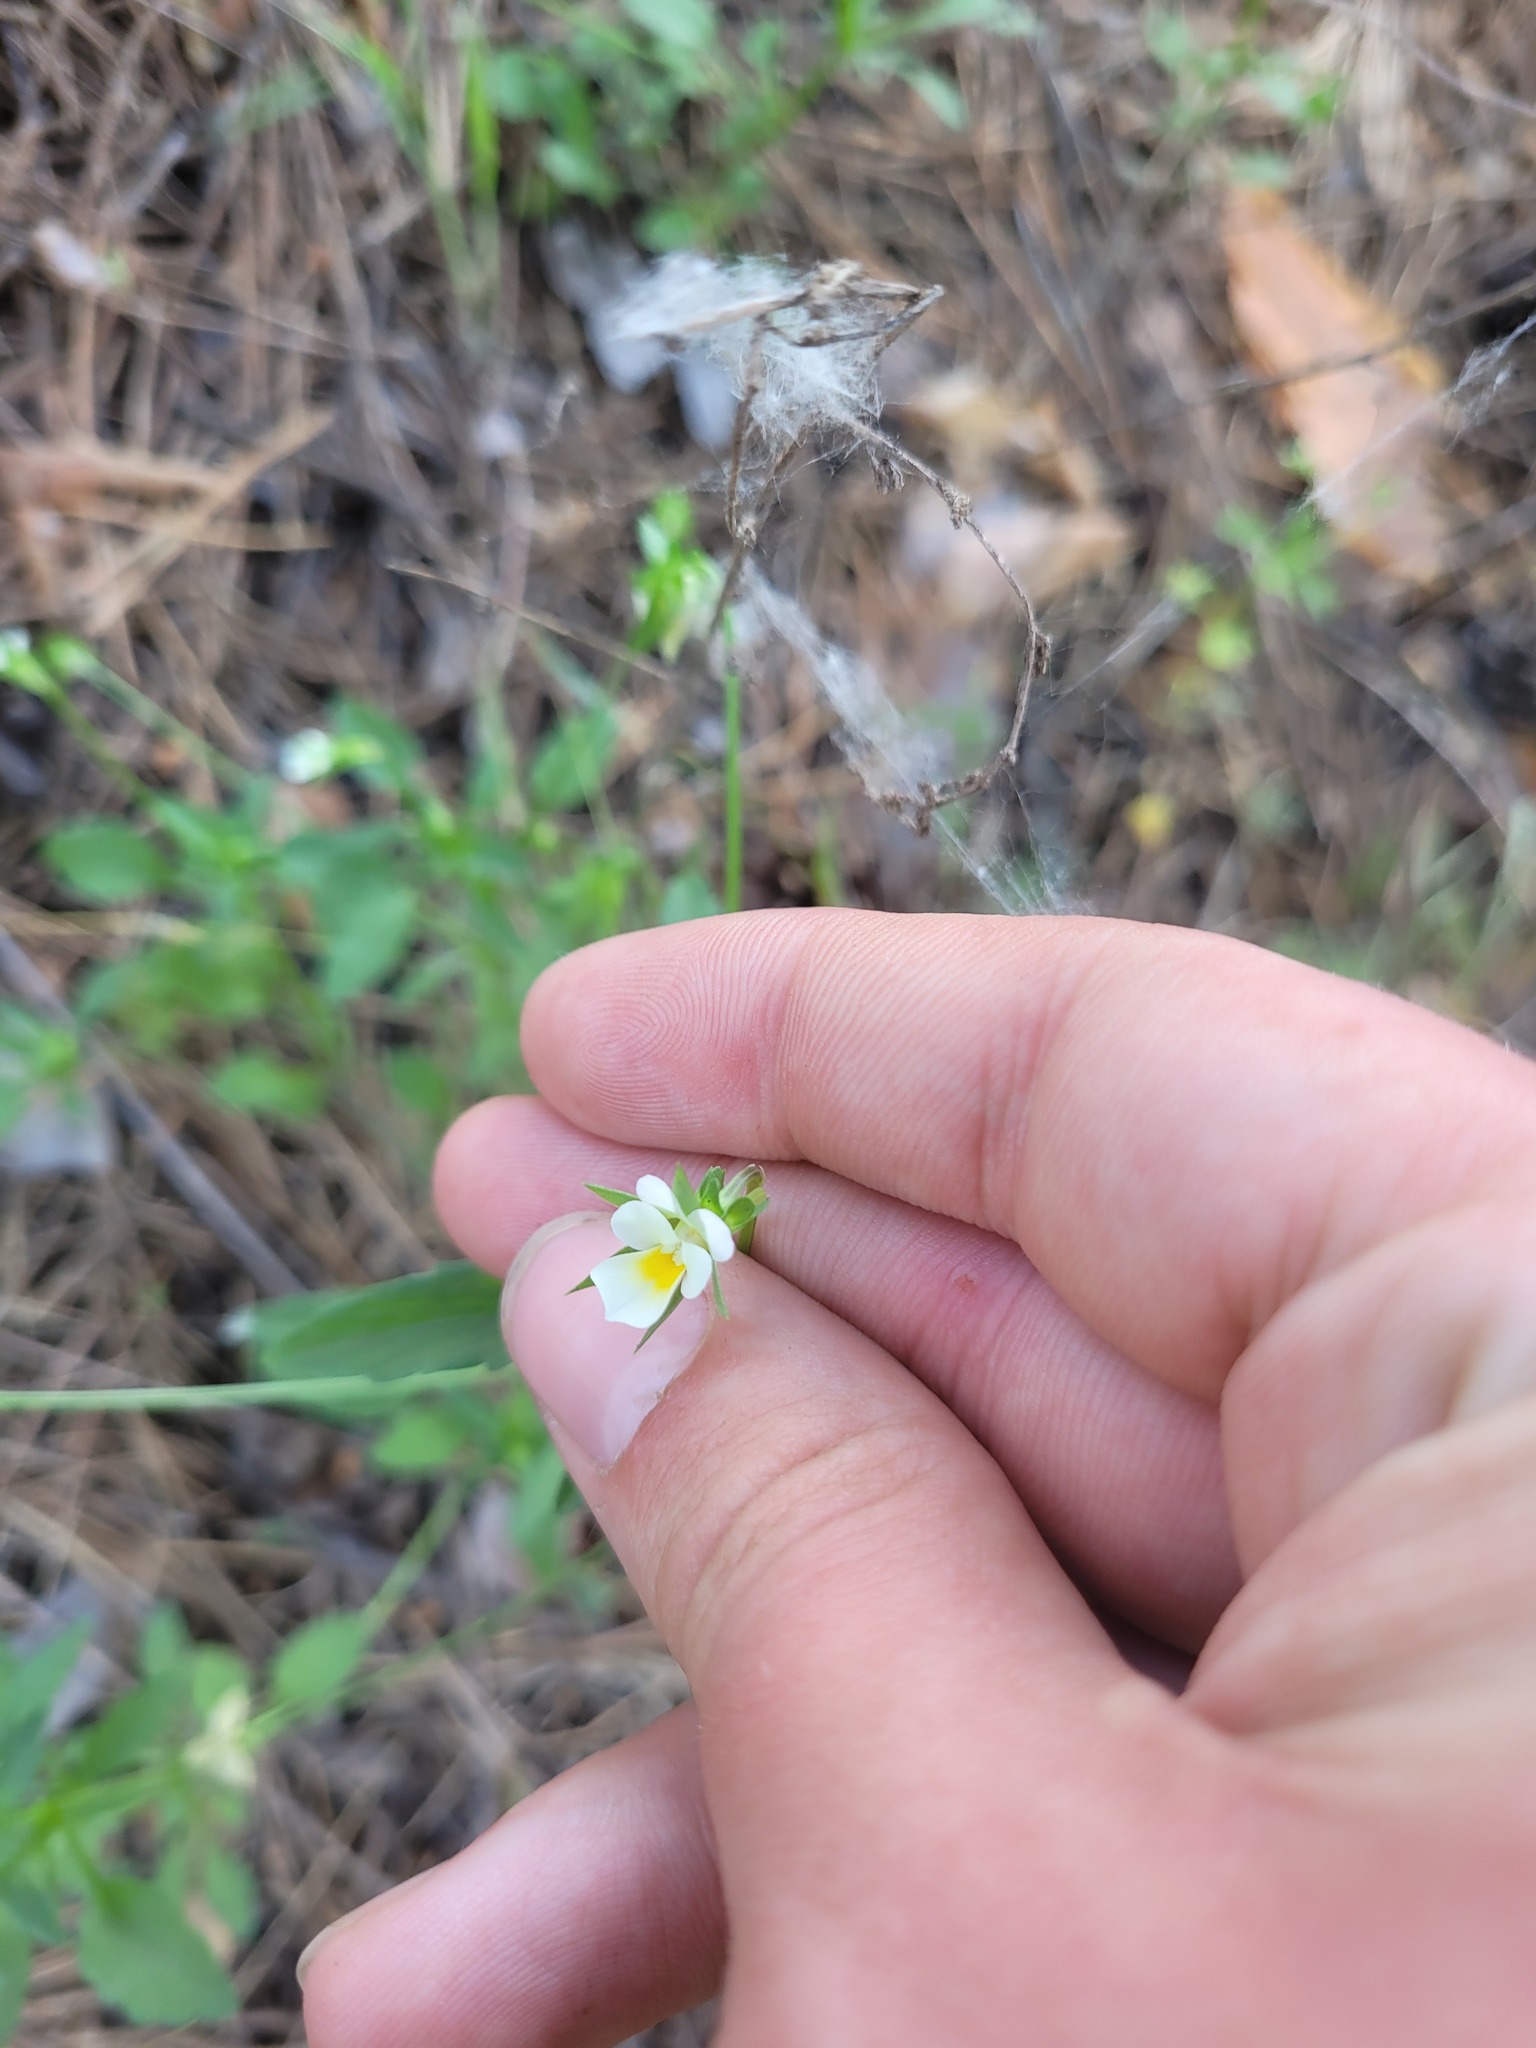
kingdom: Plantae
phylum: Tracheophyta
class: Magnoliopsida
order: Malpighiales
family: Violaceae
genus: Viola
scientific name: Viola arvensis
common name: Field pansy
